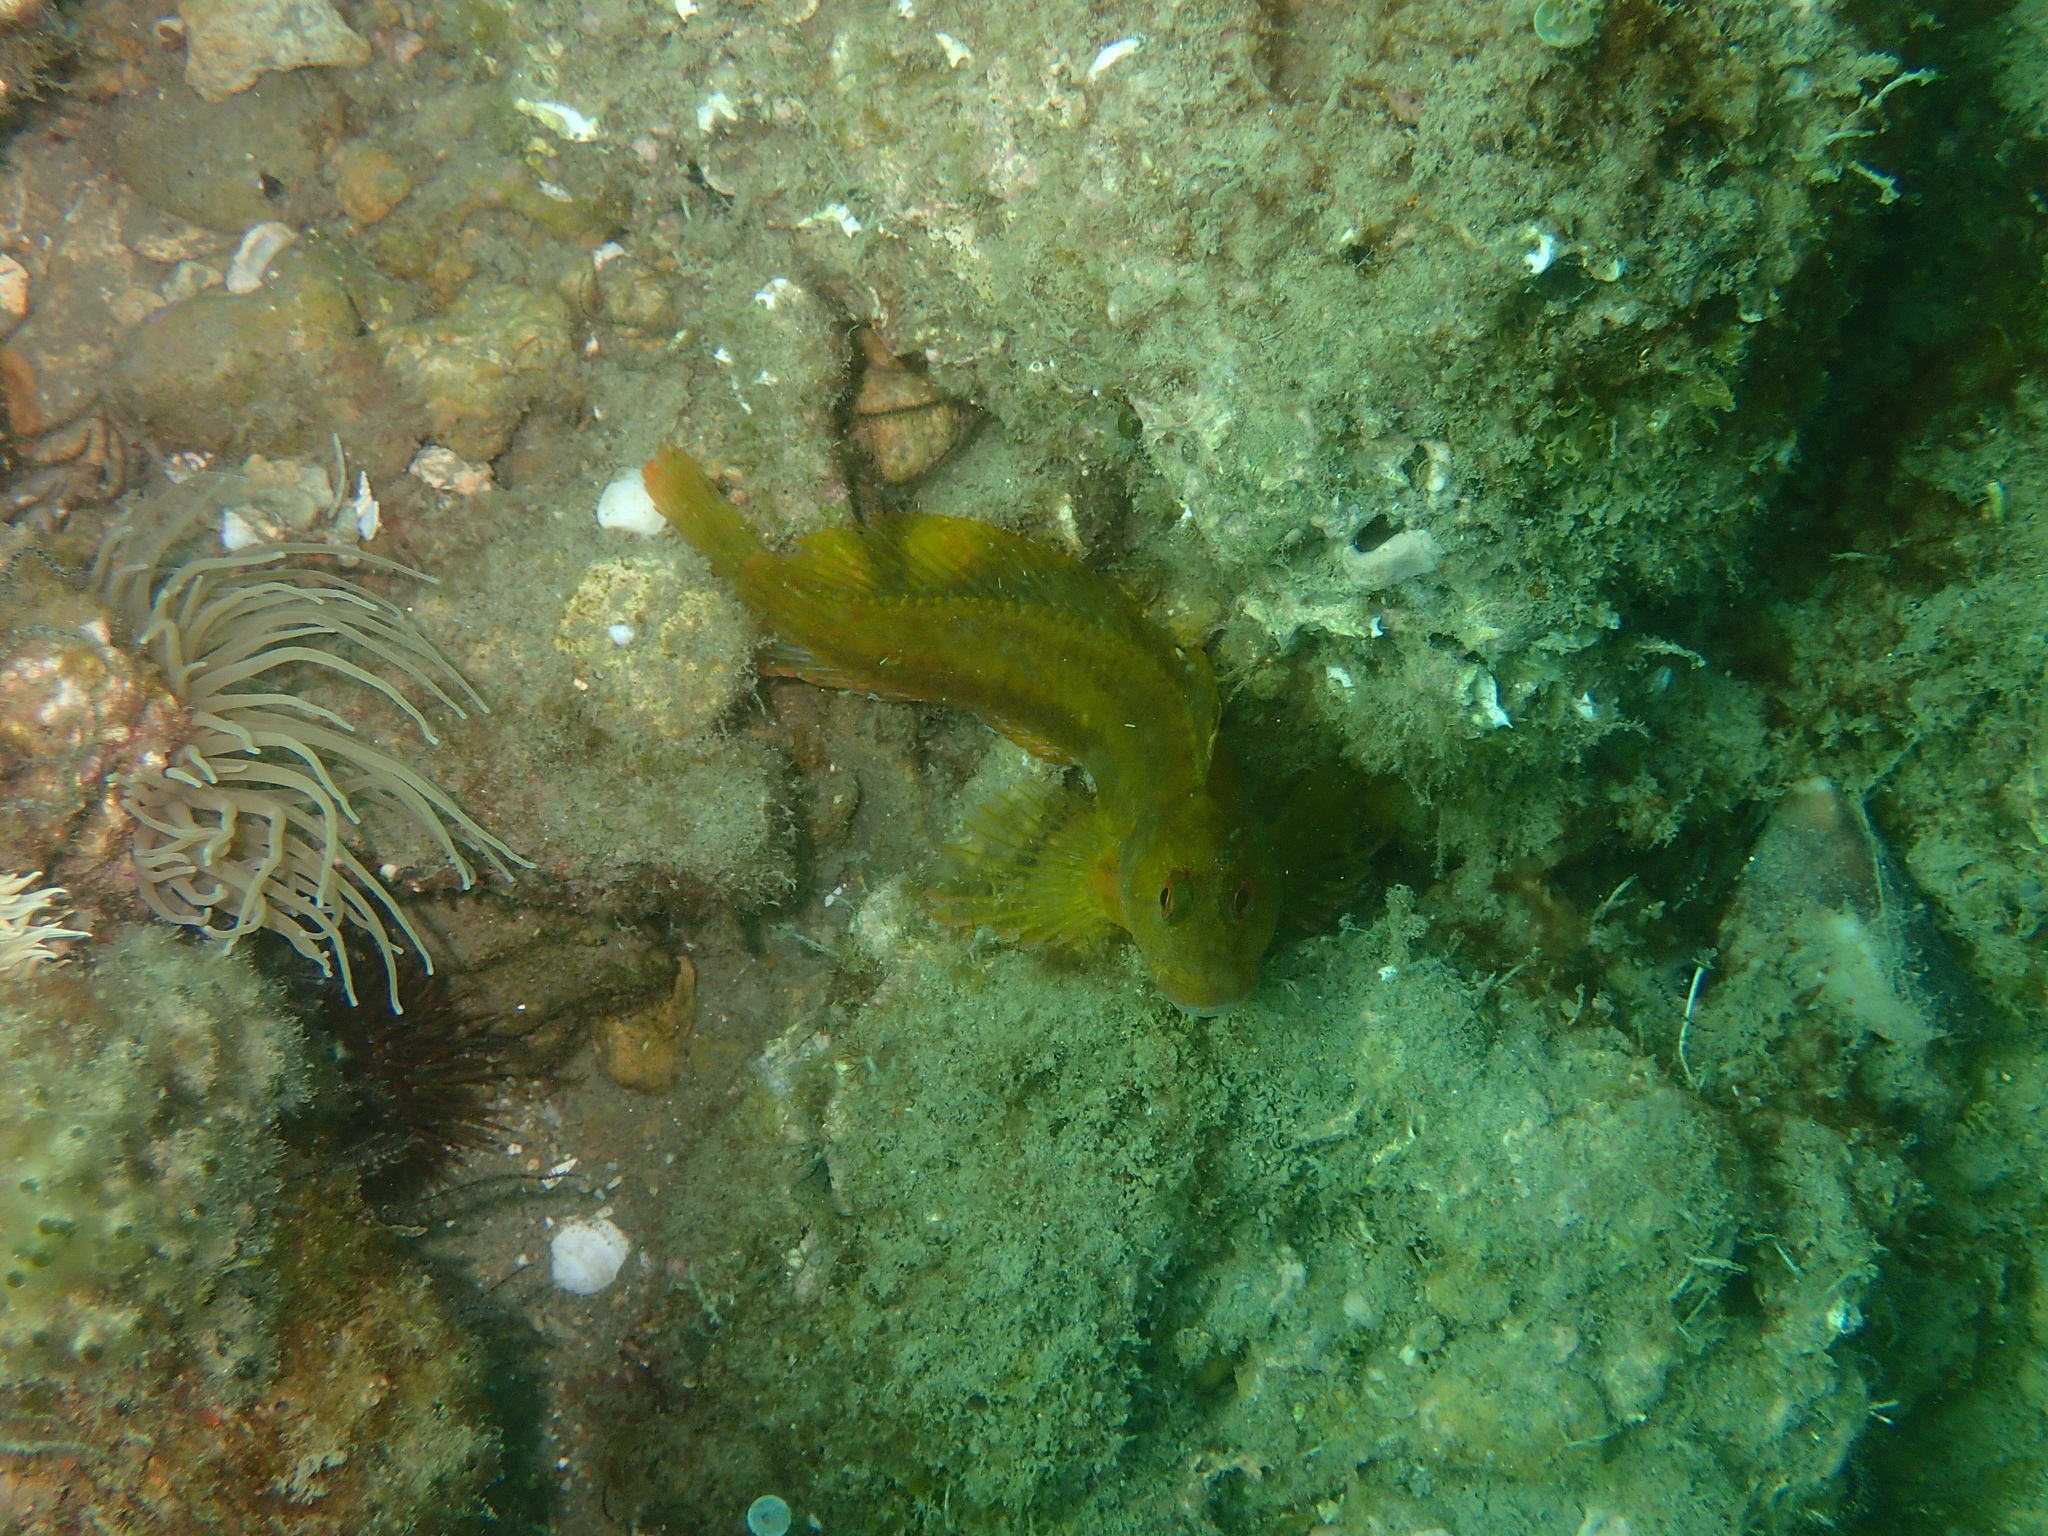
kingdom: Animalia
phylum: Chordata
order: Perciformes
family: Blenniidae
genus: Parablennius
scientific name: Parablennius pilicornis
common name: Ringneck blenny
